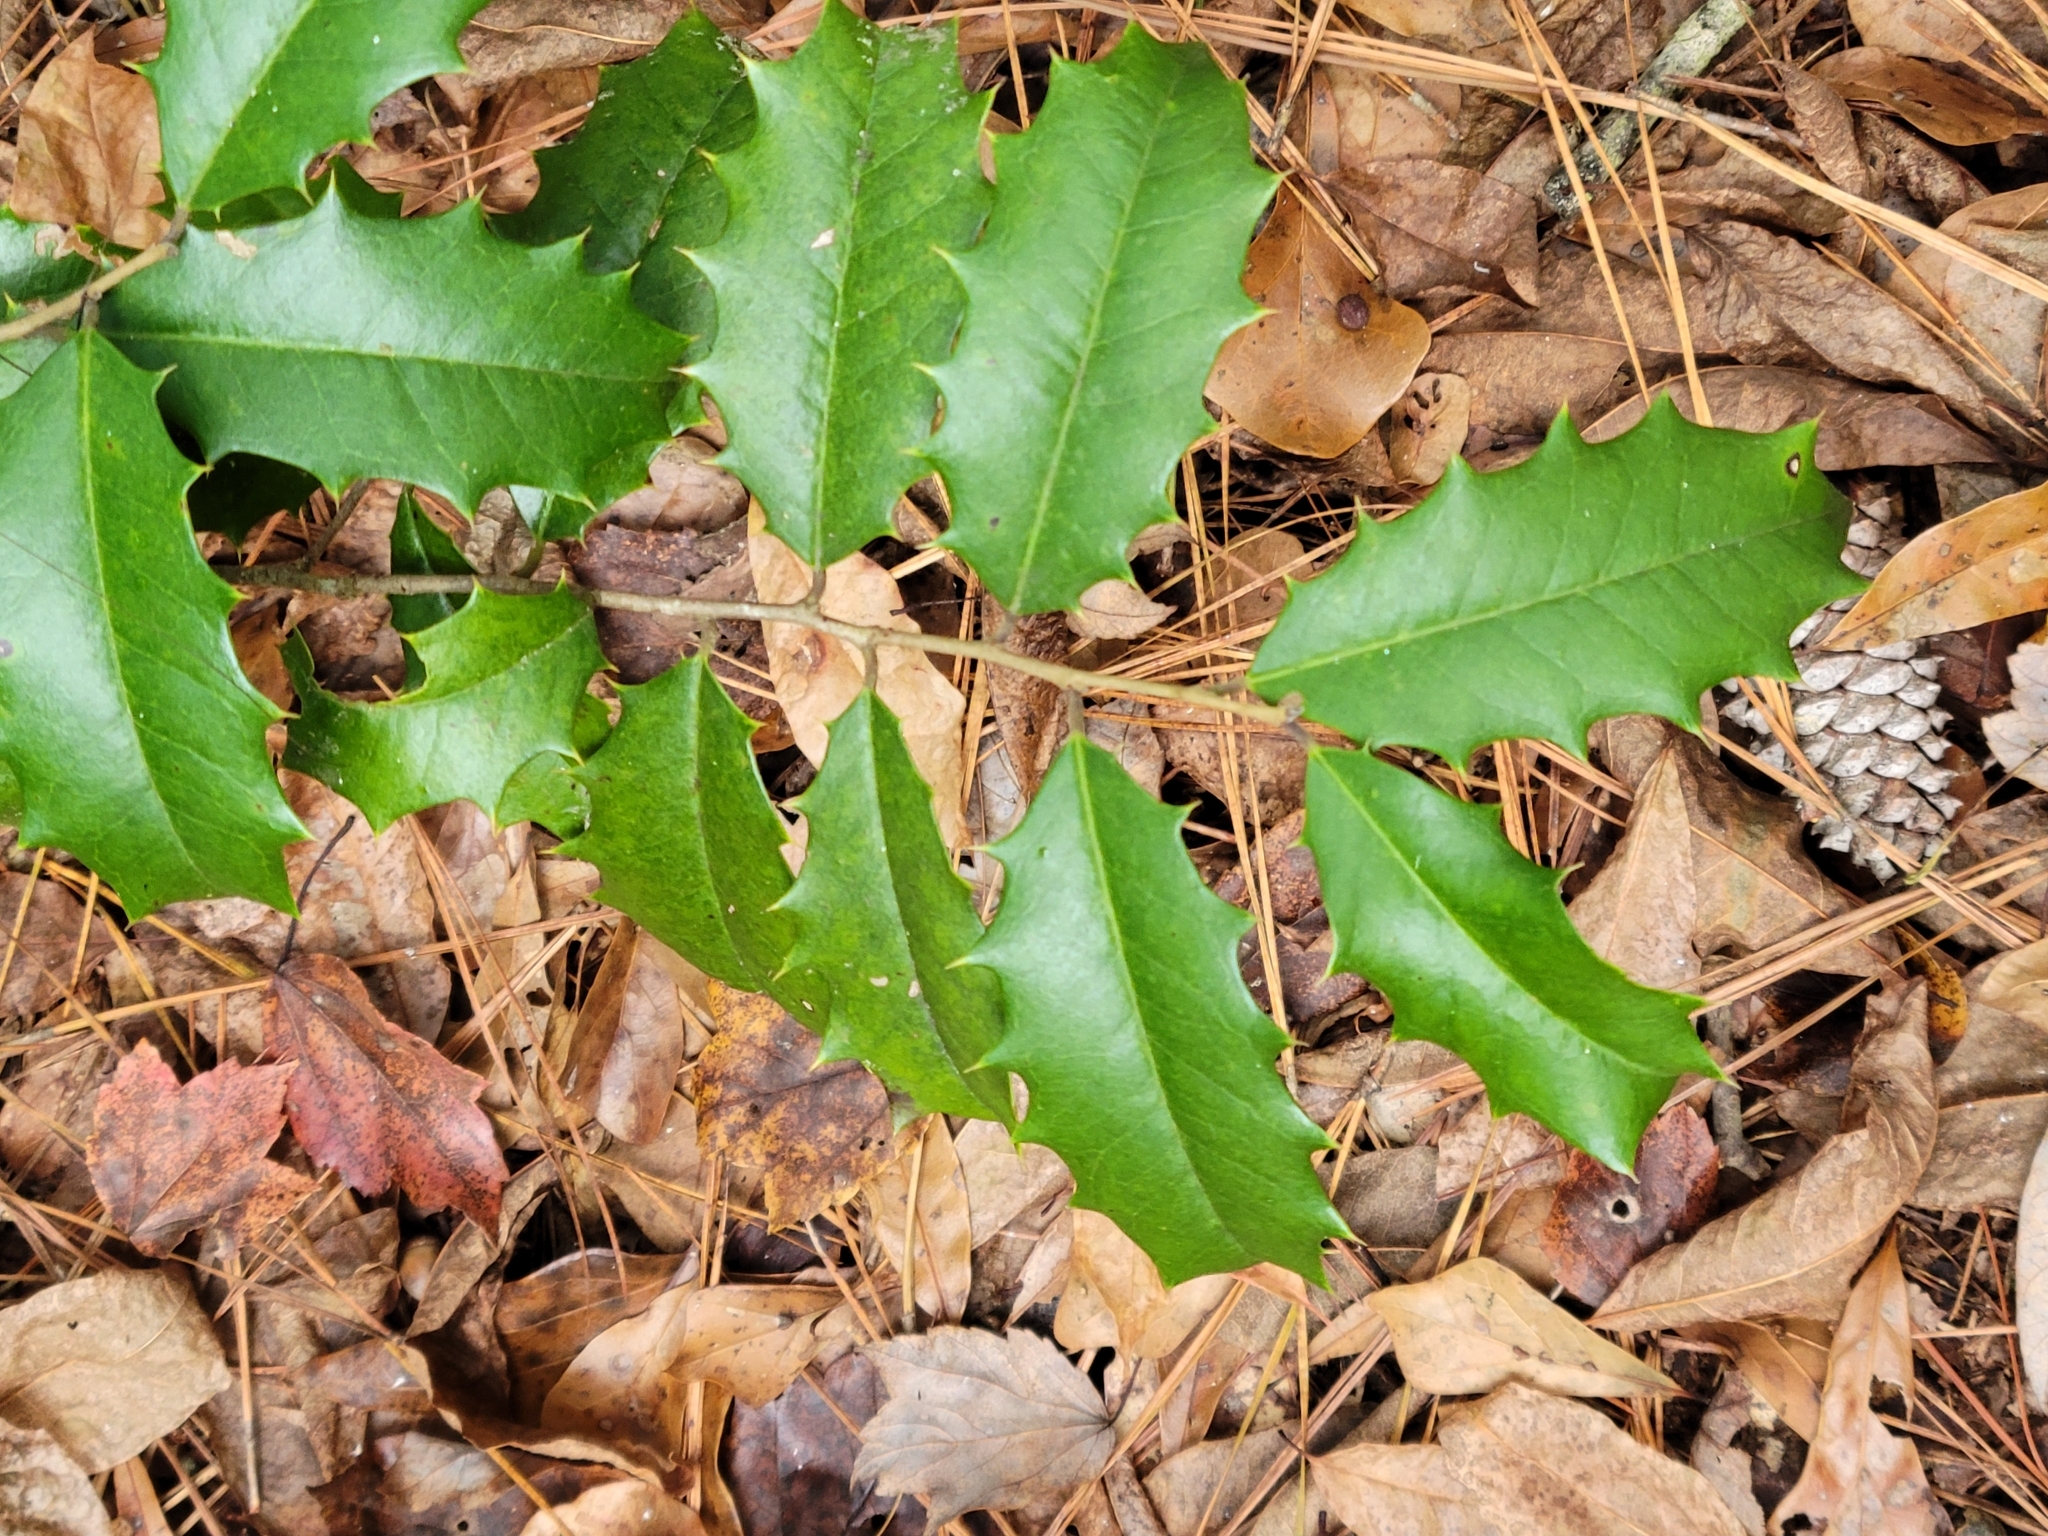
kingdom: Plantae
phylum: Tracheophyta
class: Magnoliopsida
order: Aquifoliales
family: Aquifoliaceae
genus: Ilex
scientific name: Ilex opaca
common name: American holly
